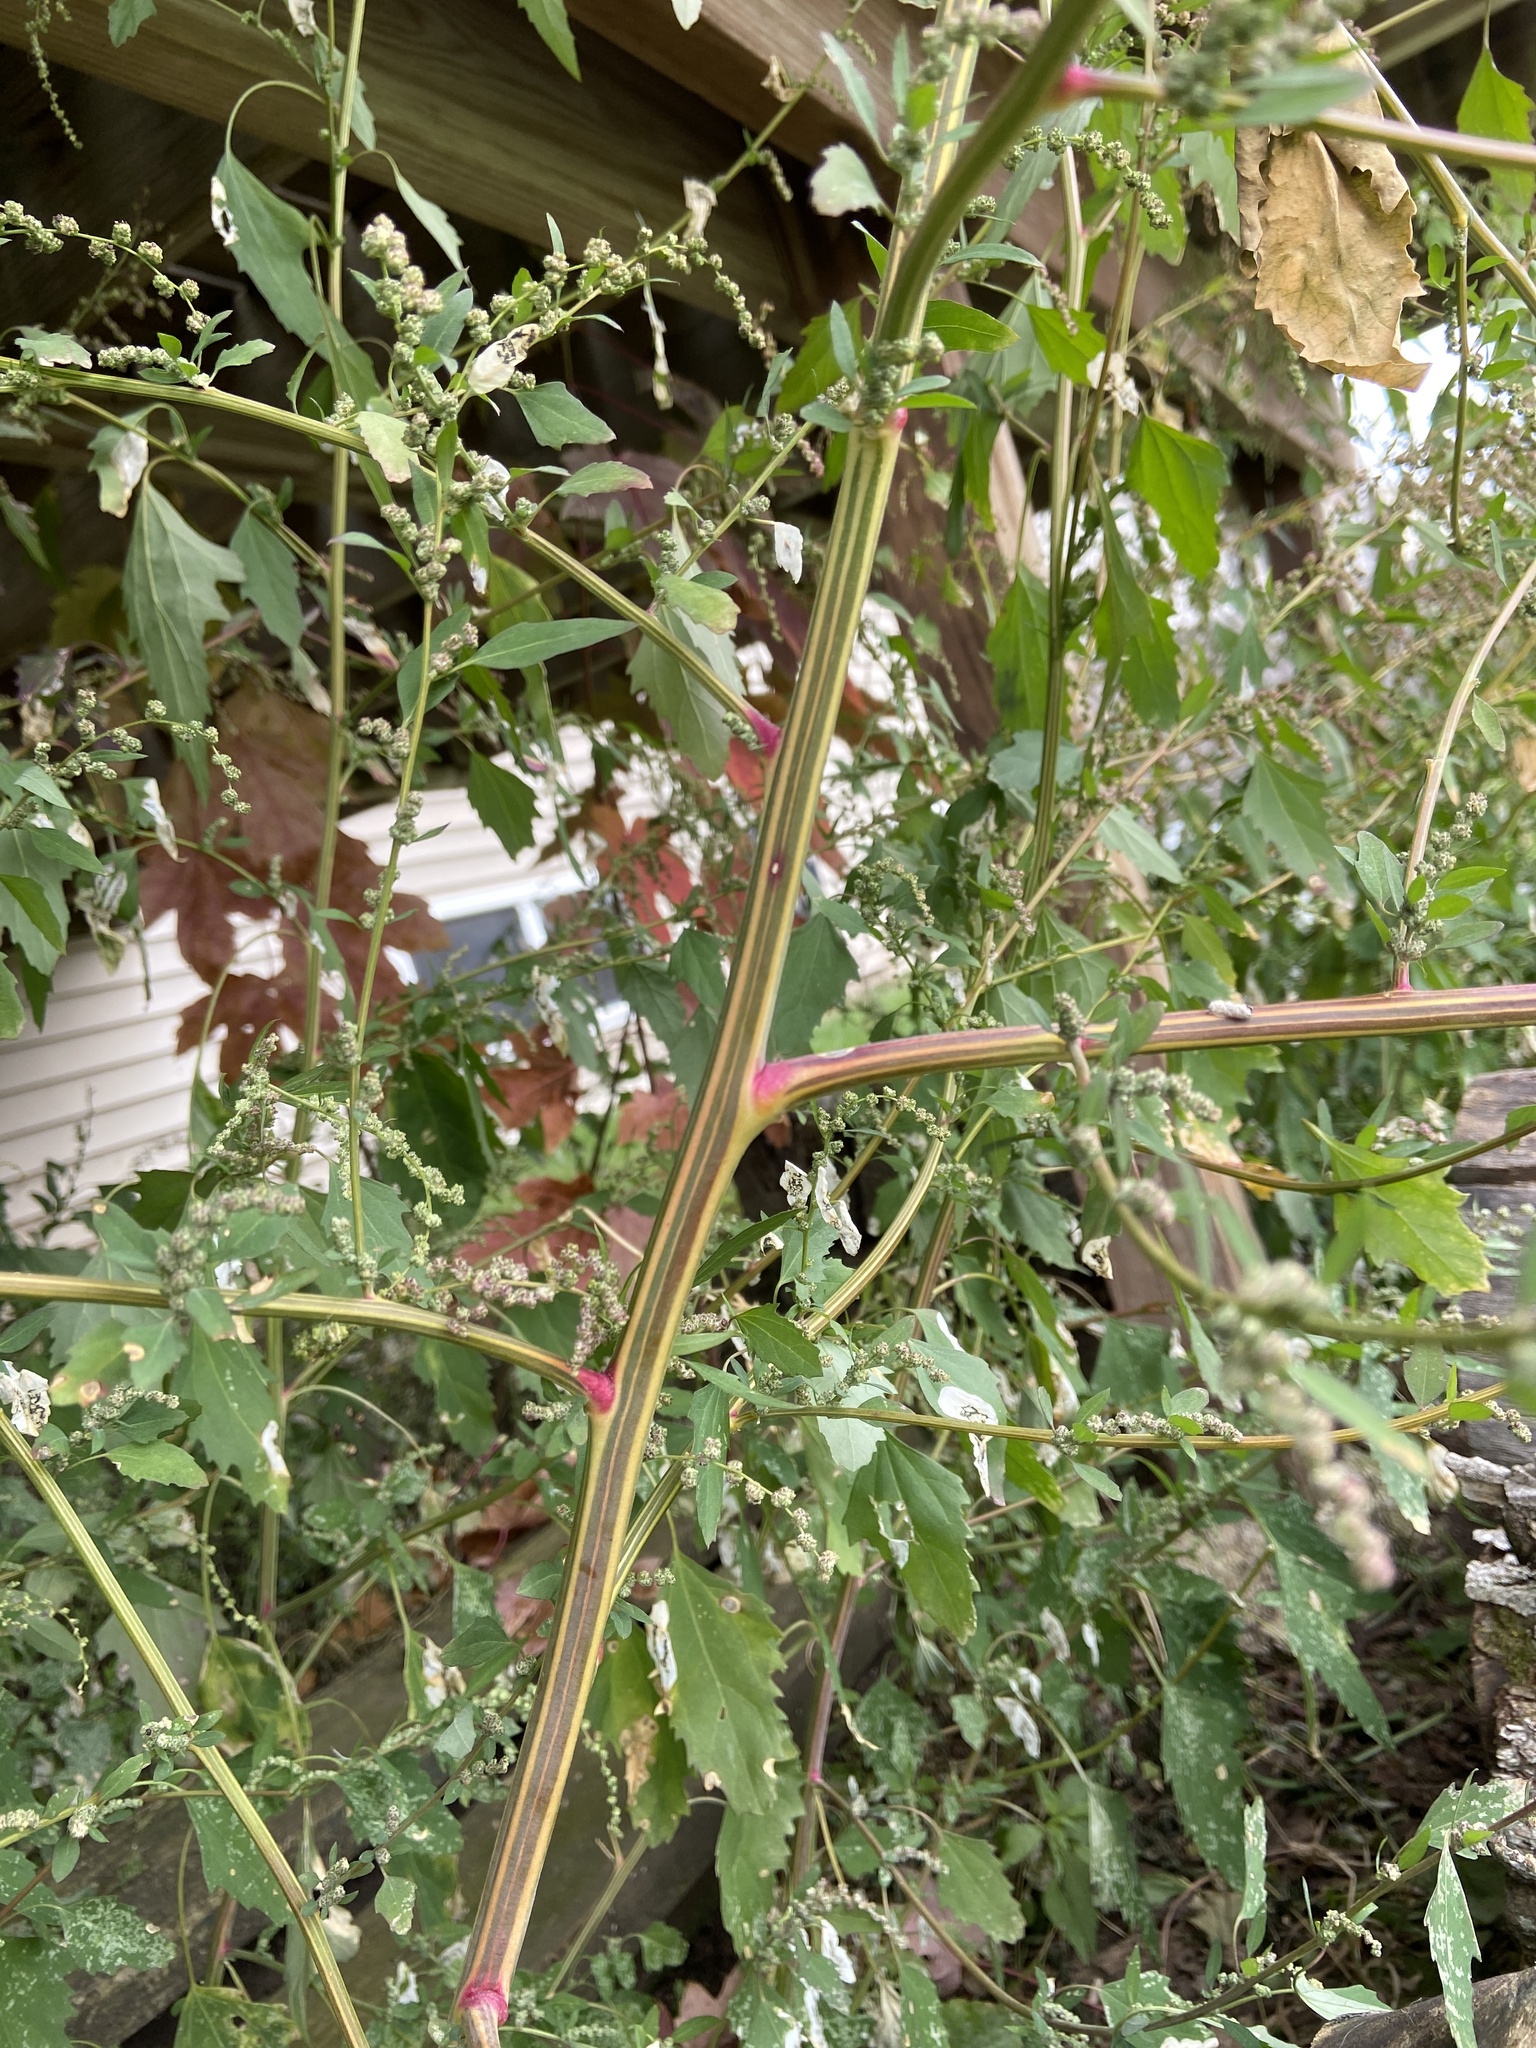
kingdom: Plantae
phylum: Tracheophyta
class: Magnoliopsida
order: Caryophyllales
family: Amaranthaceae
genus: Chenopodium
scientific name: Chenopodium album
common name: Fat-hen
